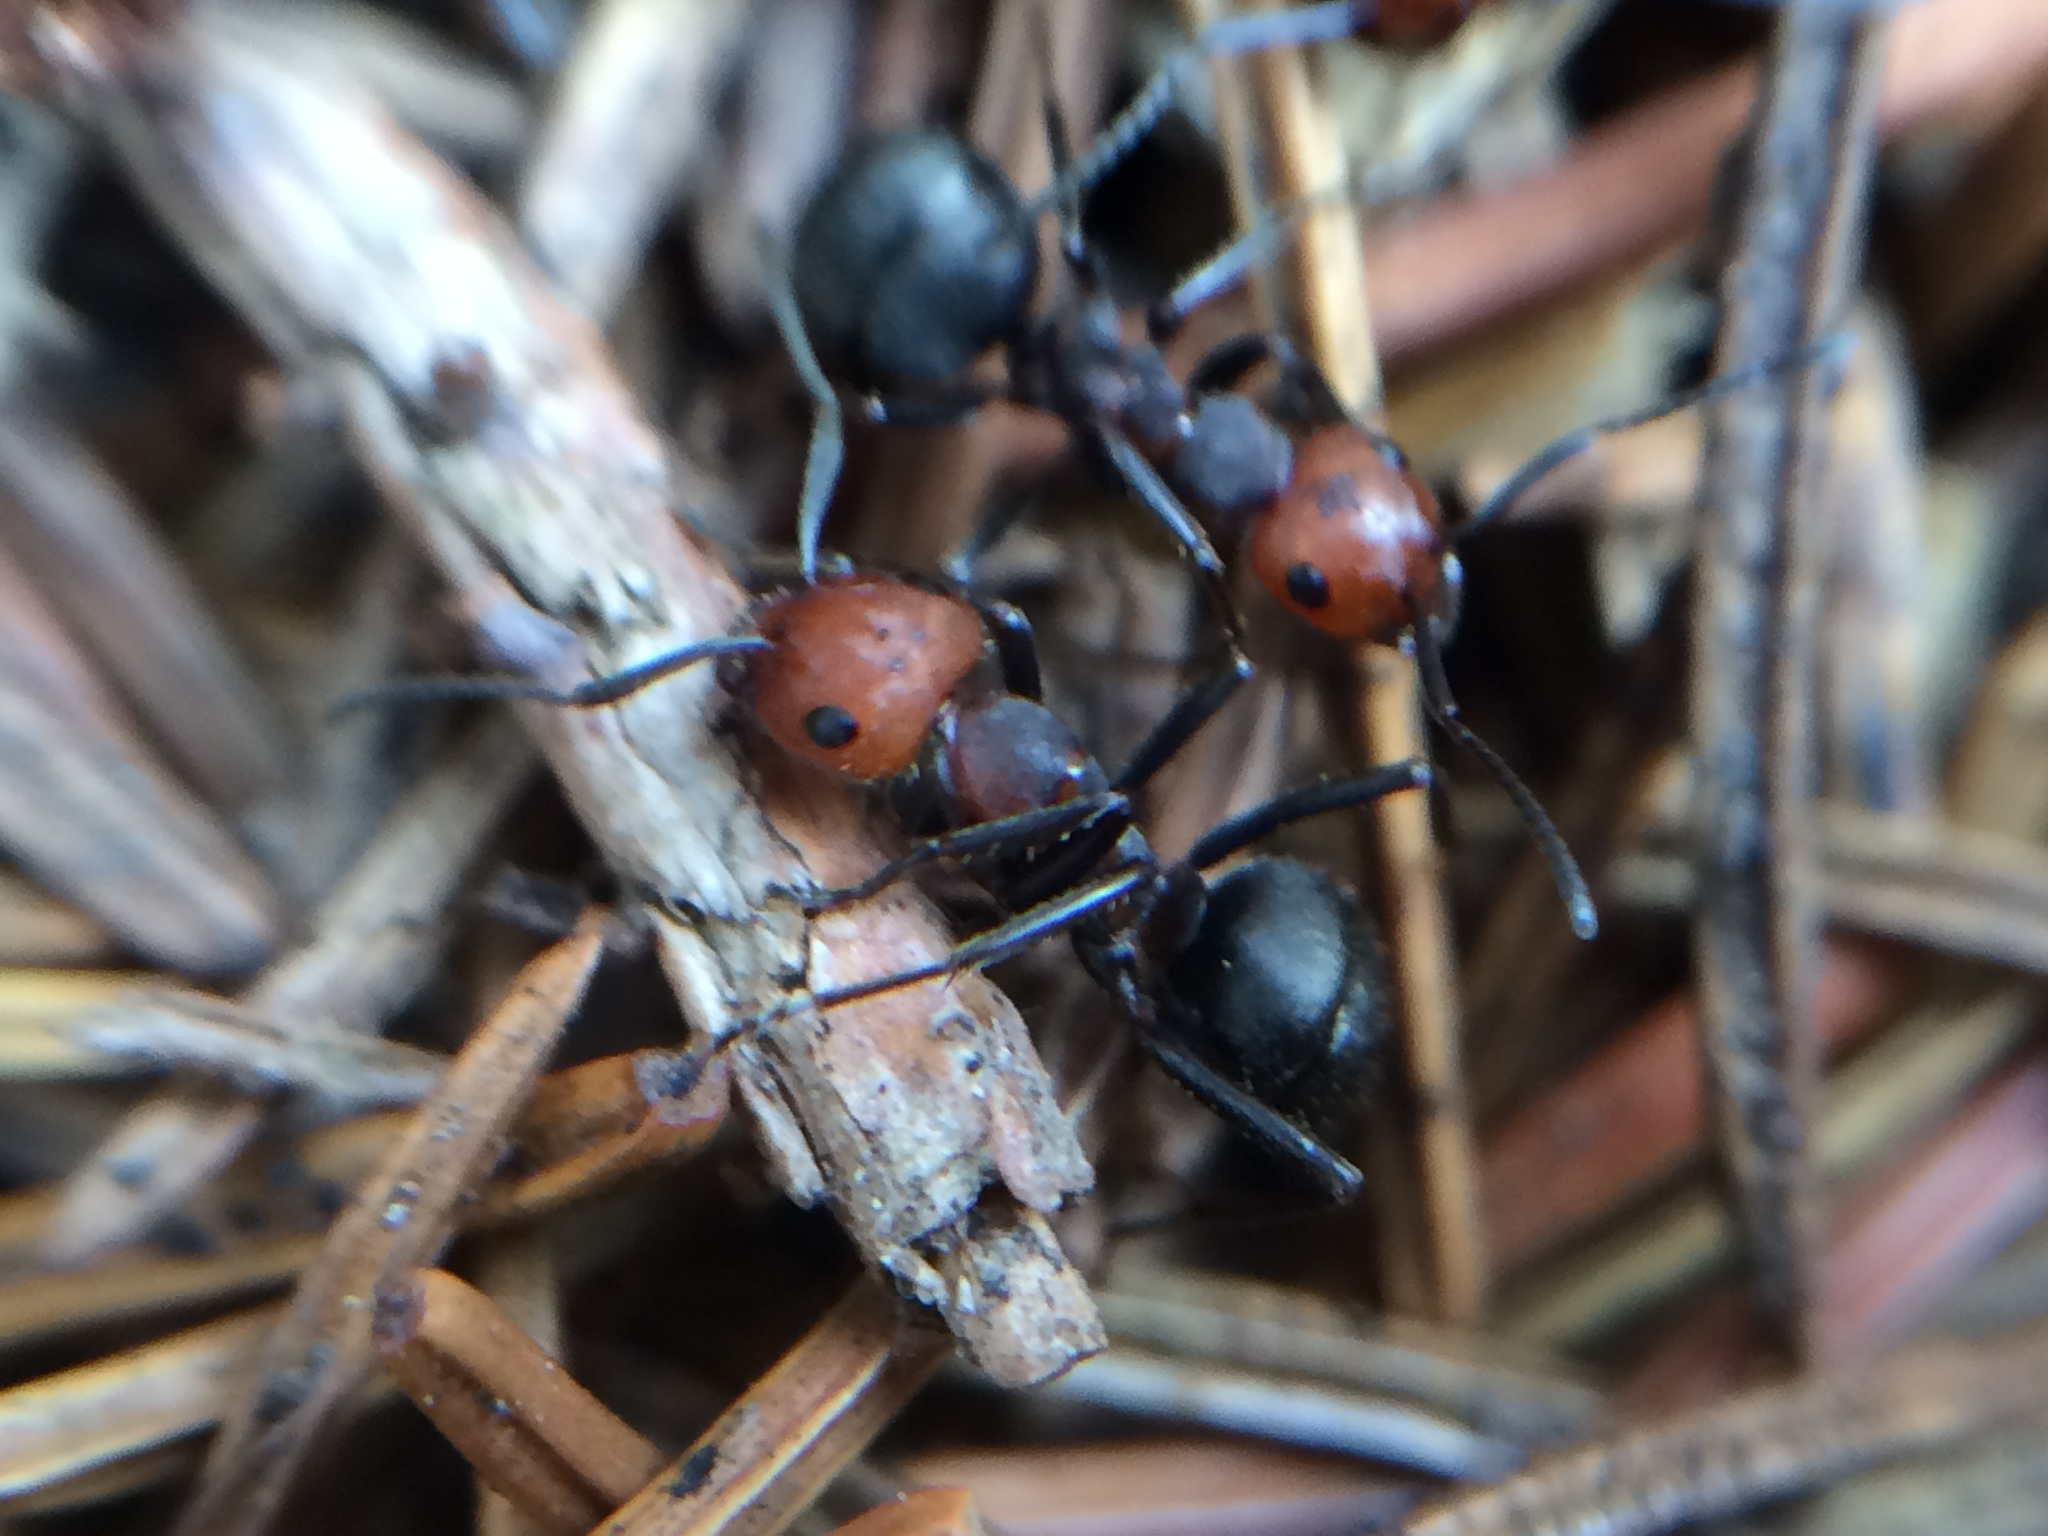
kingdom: Animalia
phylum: Arthropoda
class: Insecta
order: Hymenoptera
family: Formicidae
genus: Formica
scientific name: Formica obscuripes
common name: Western thatching ant
